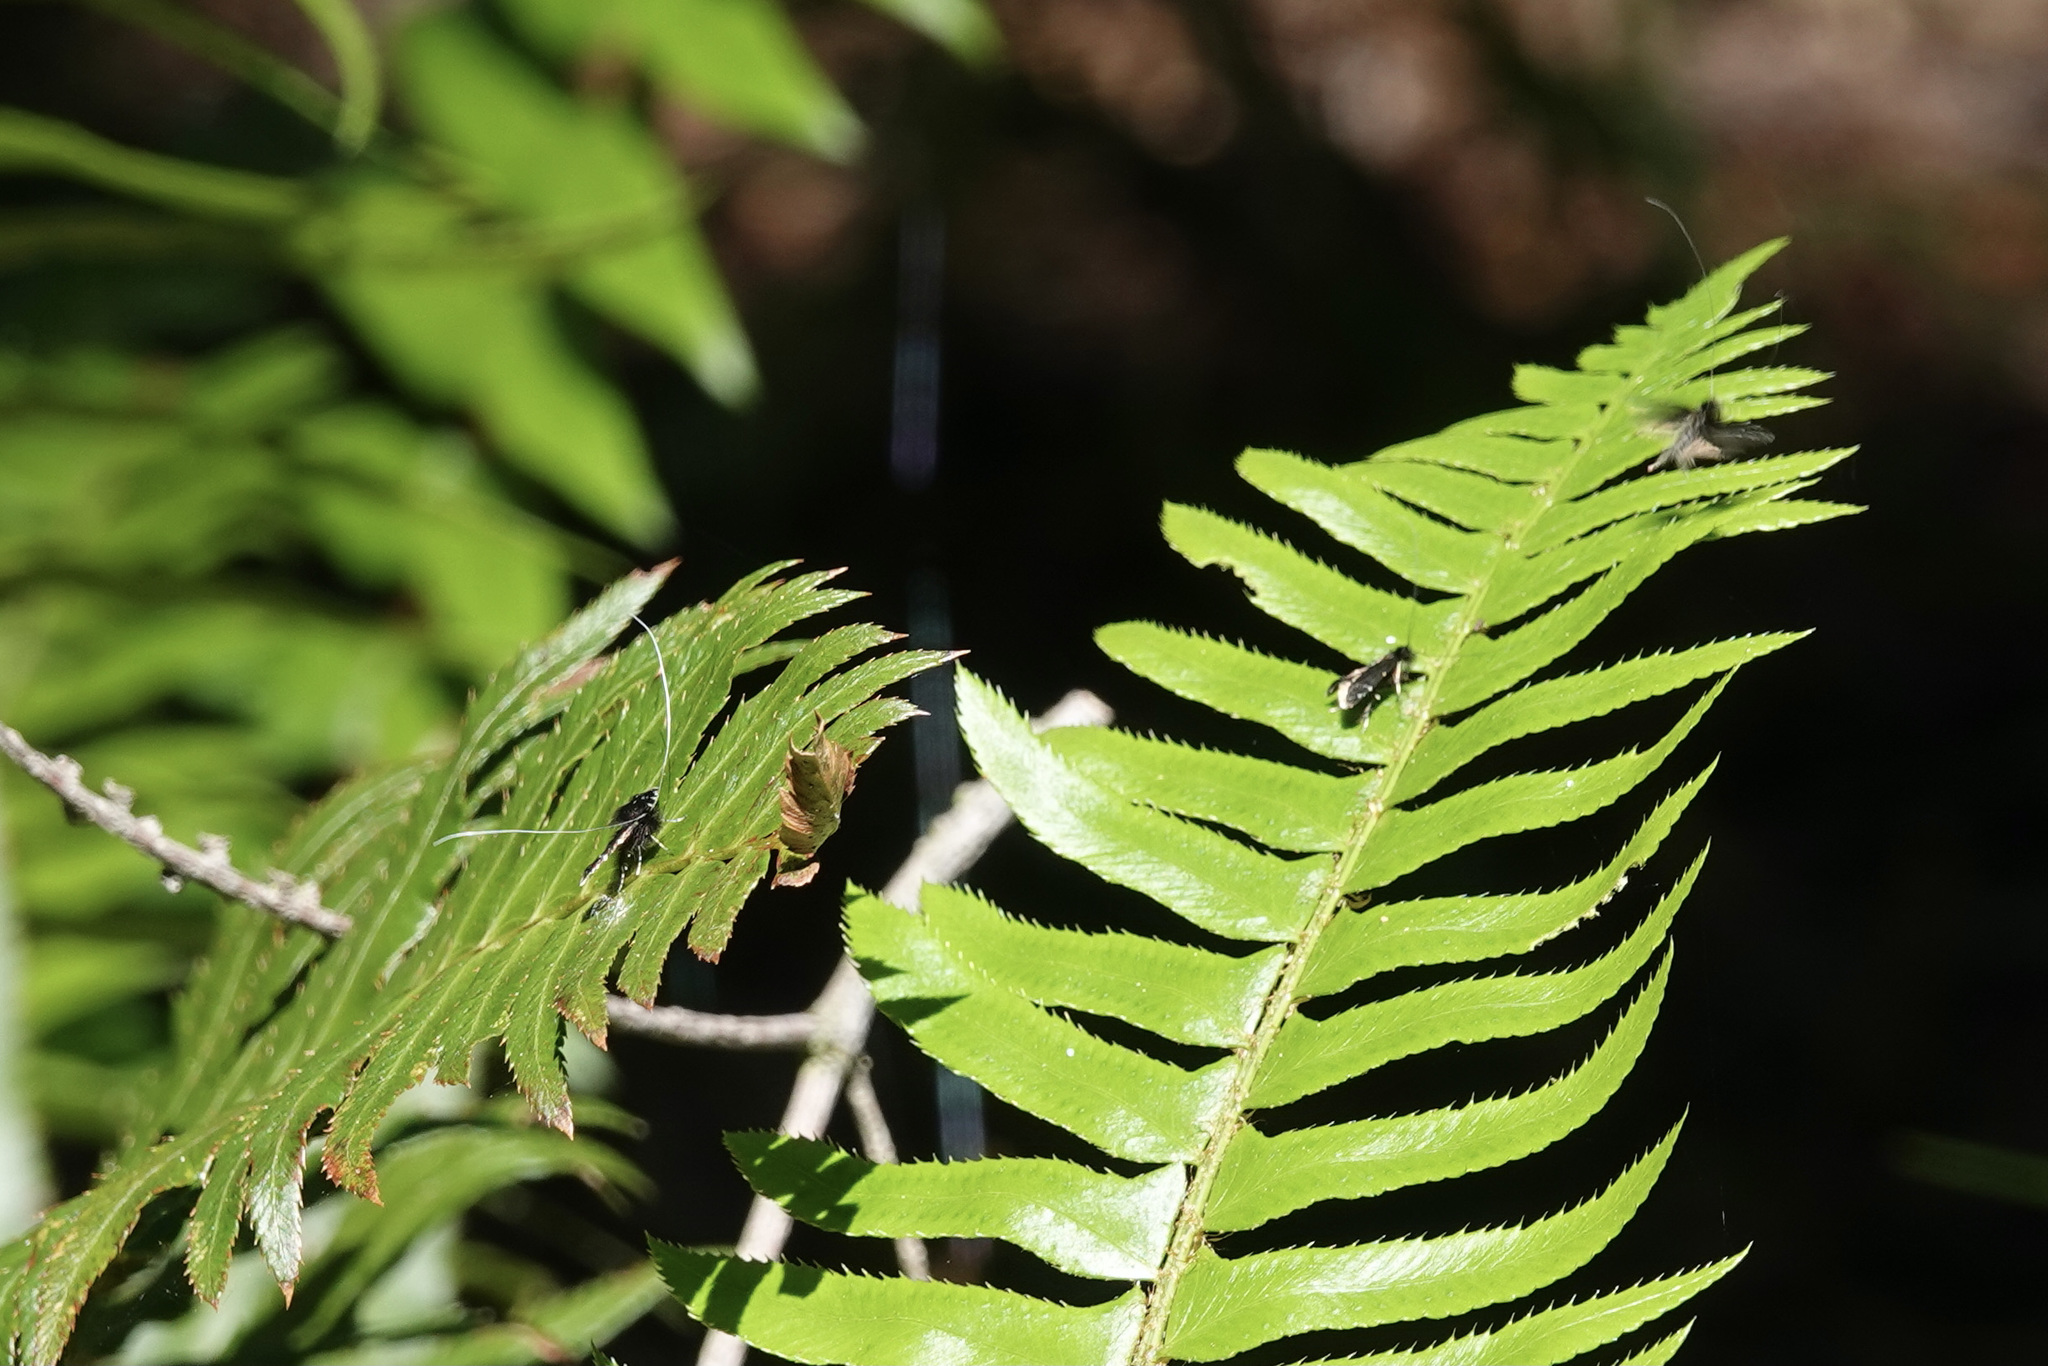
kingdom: Animalia
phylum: Arthropoda
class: Insecta
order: Lepidoptera
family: Adelidae
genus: Adela
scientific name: Adela septentrionella
